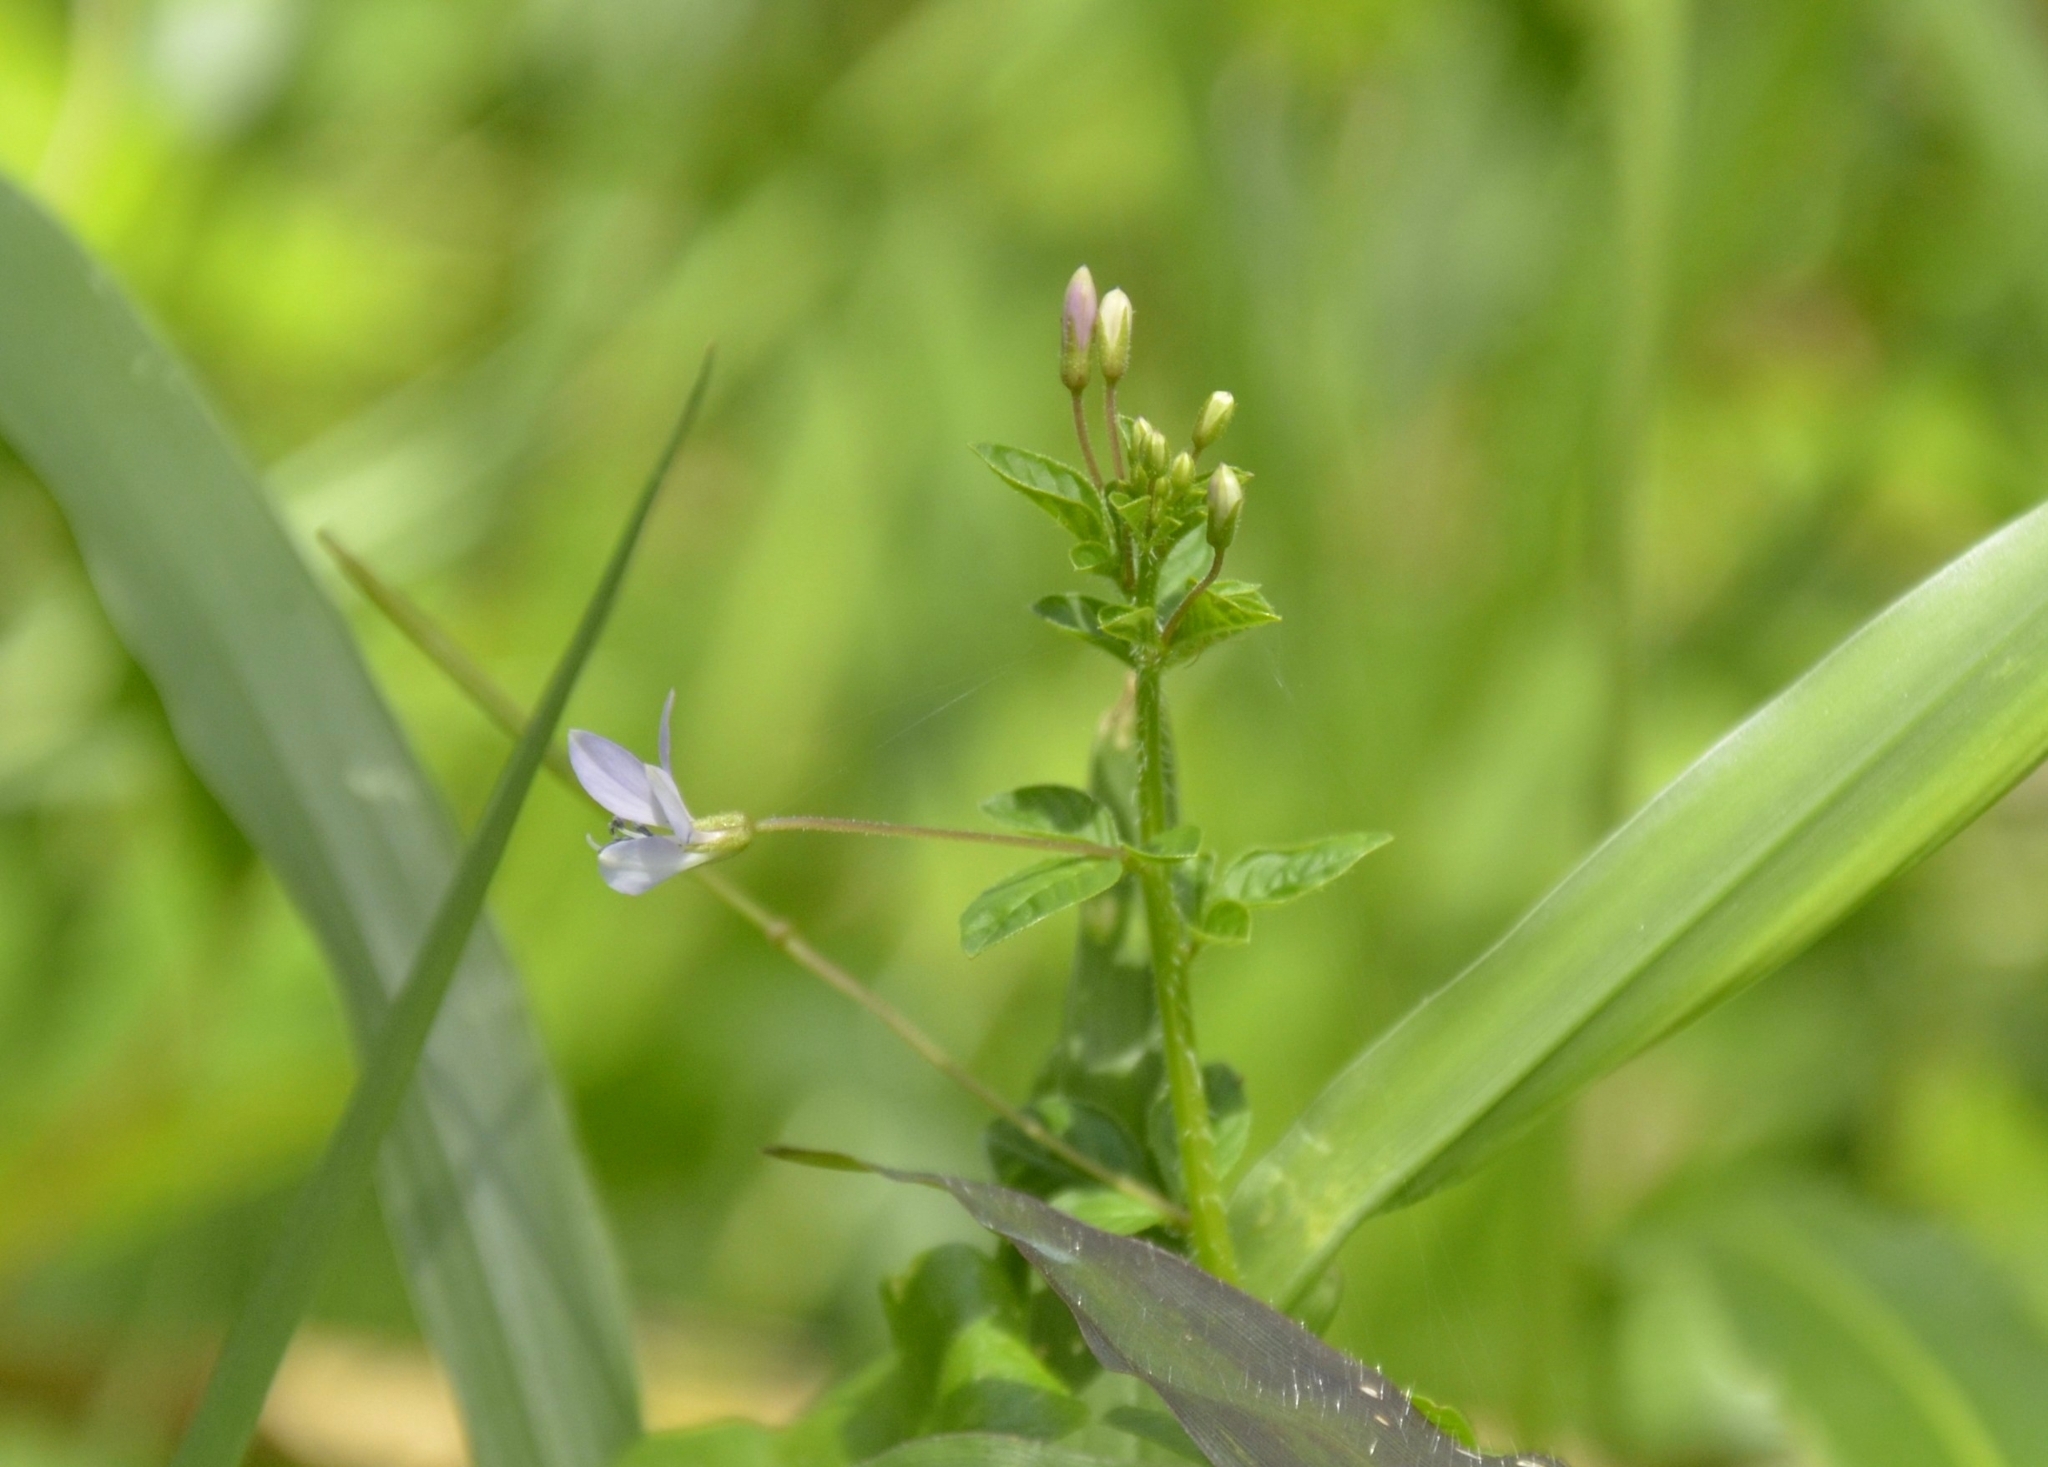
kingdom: Plantae
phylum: Tracheophyta
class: Magnoliopsida
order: Brassicales
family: Cleomaceae
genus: Sieruela
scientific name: Sieruela rutidosperma
